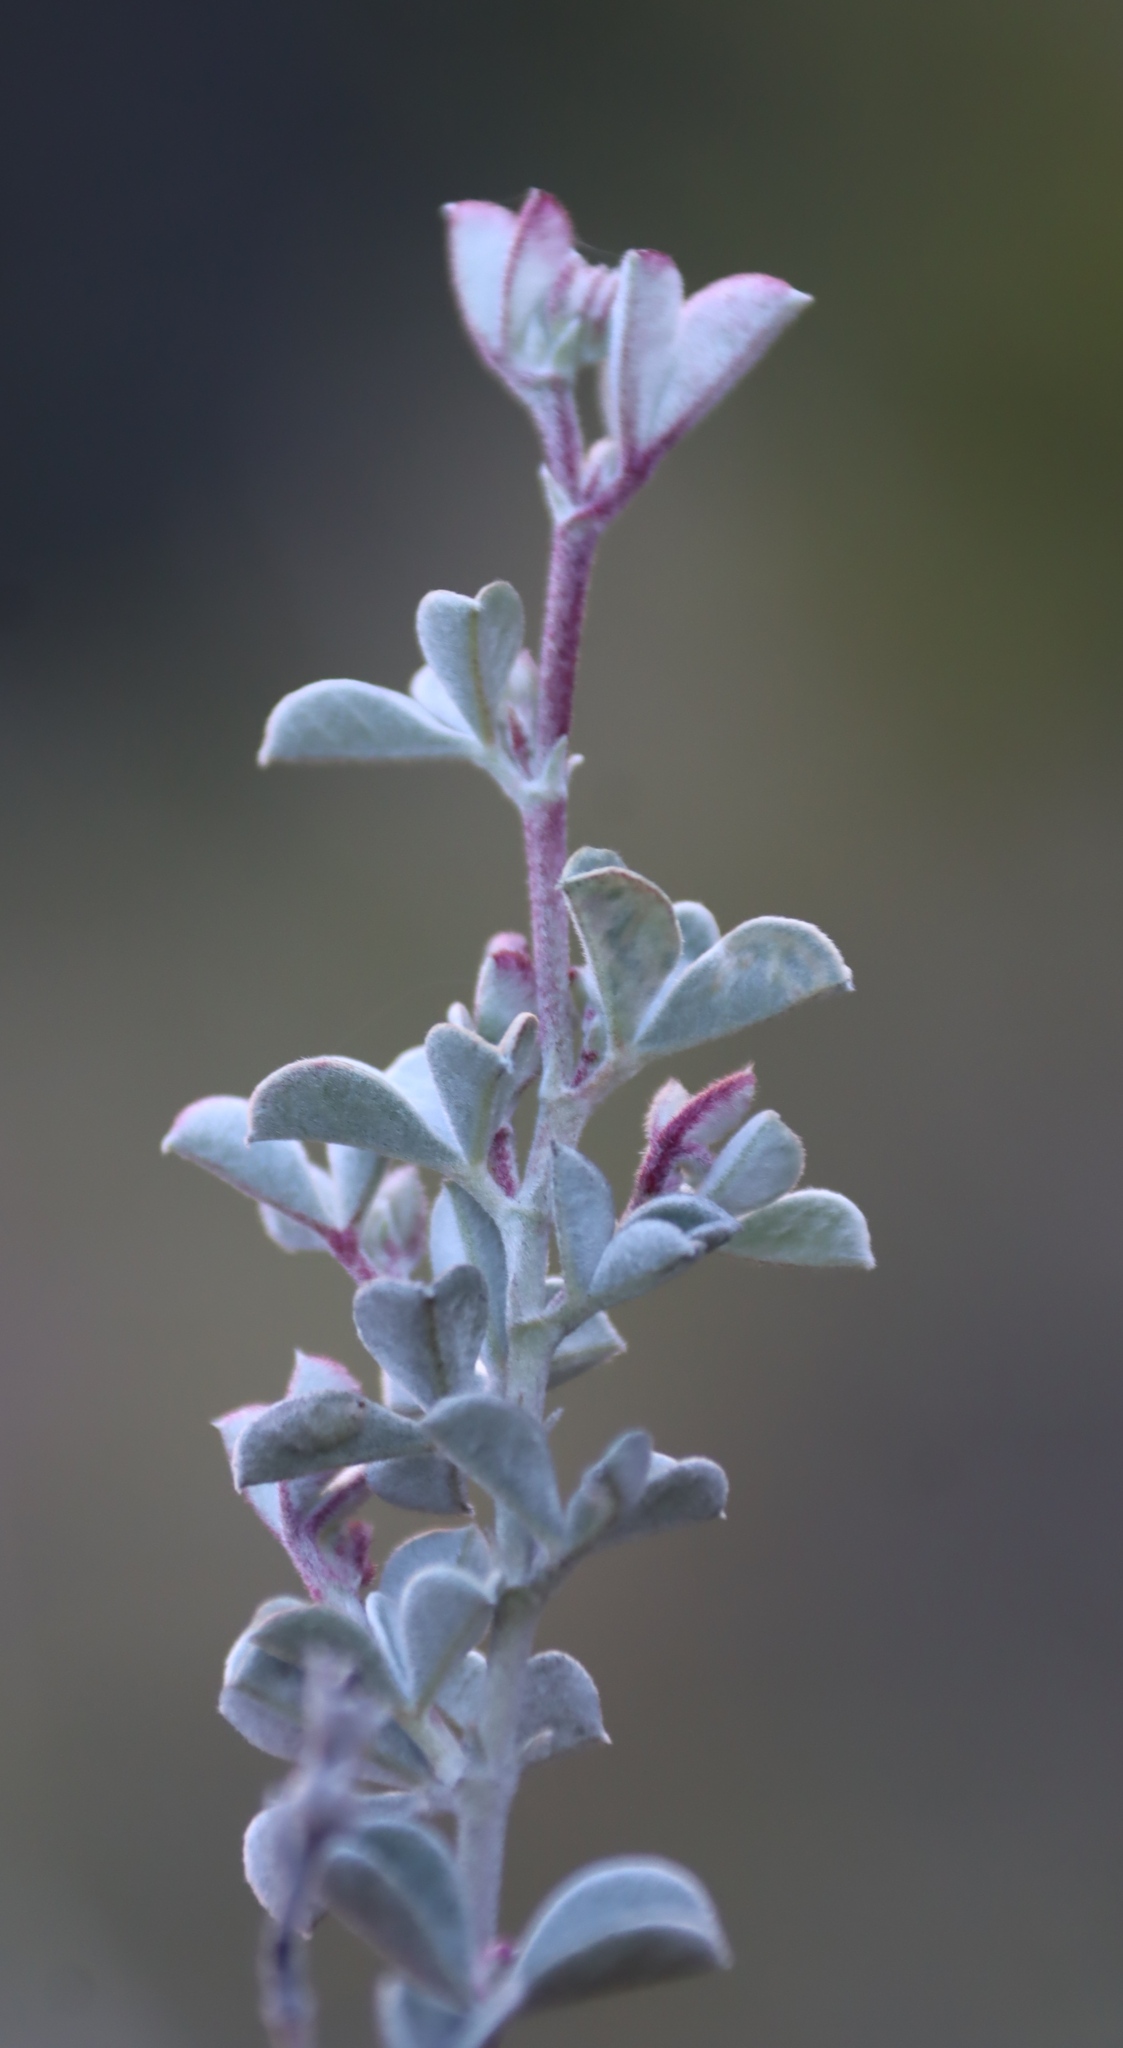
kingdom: Plantae
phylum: Tracheophyta
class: Magnoliopsida
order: Fabales
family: Fabaceae
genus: Argyrolobium
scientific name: Argyrolobium incanum
